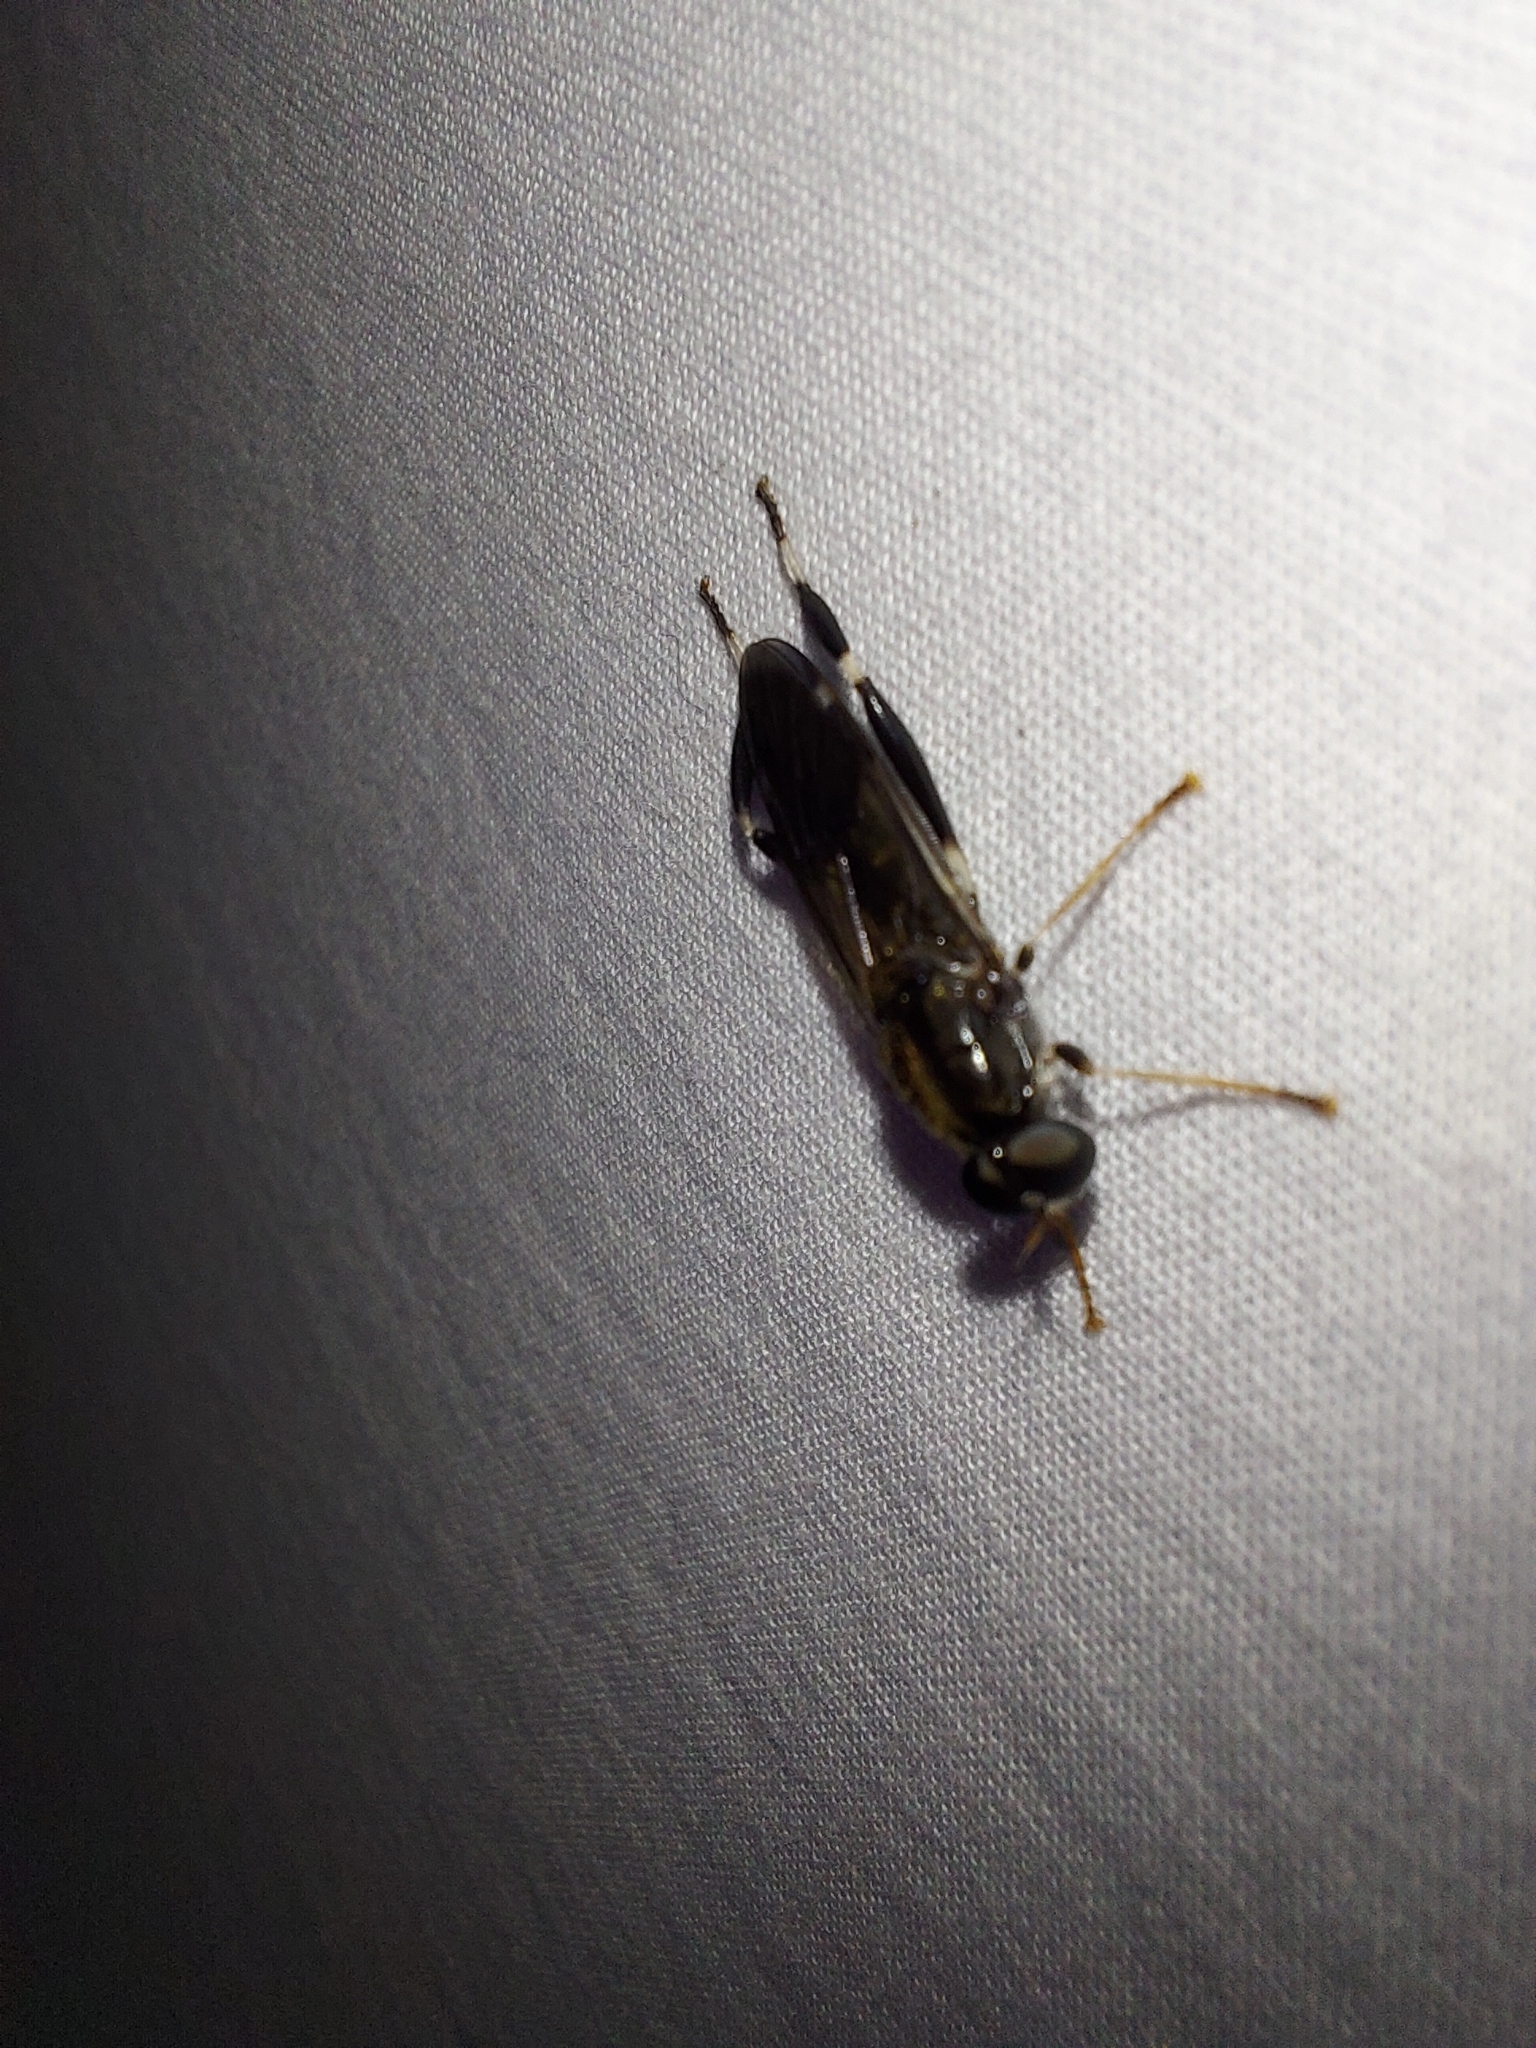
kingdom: Animalia
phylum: Arthropoda
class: Insecta
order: Diptera
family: Stratiomyidae
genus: Exaireta
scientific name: Exaireta spinigera
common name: Blue soldier fly
